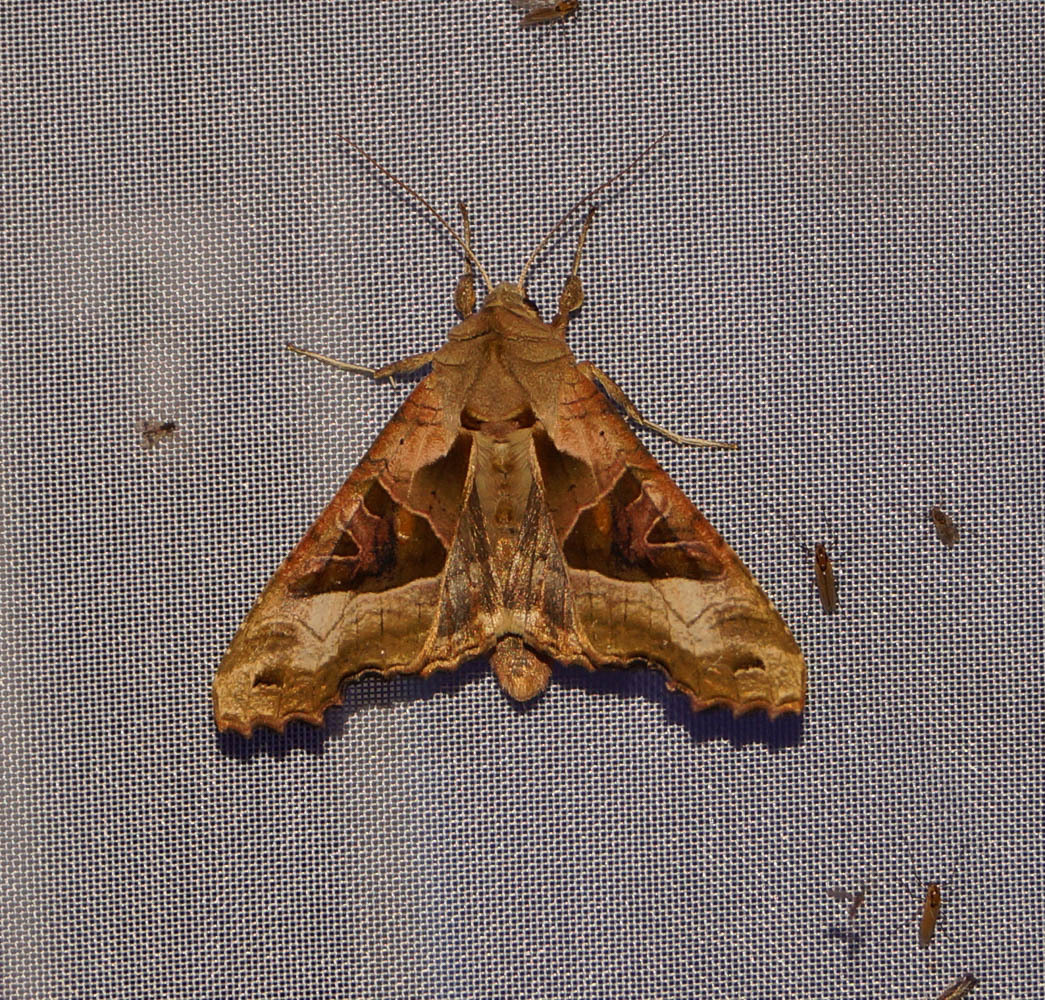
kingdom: Animalia
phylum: Arthropoda
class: Insecta
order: Lepidoptera
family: Noctuidae
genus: Phlogophora
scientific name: Phlogophora meticulosa
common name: Angle shades
